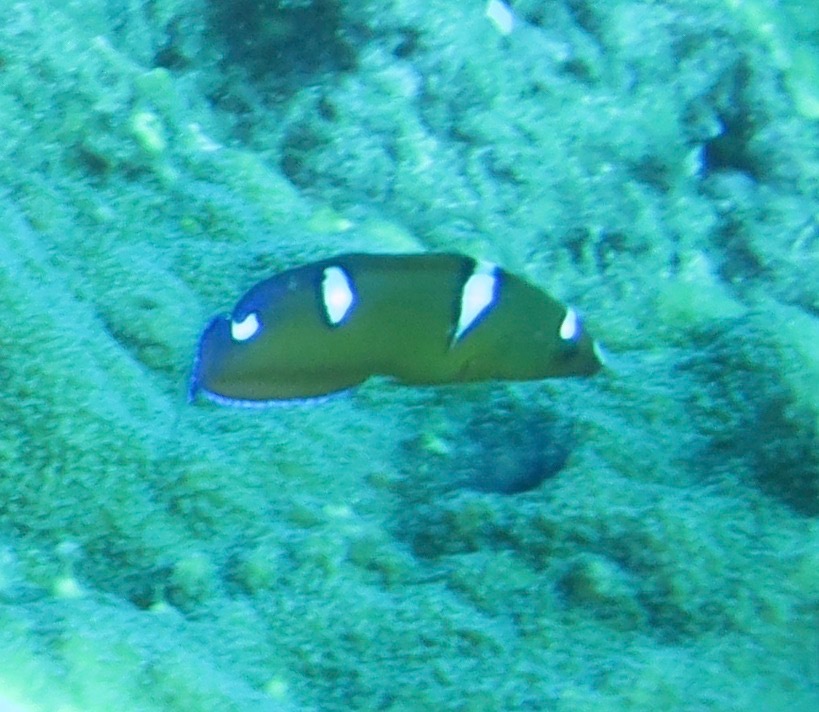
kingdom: Animalia
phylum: Chordata
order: Perciformes
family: Labridae
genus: Coris
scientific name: Coris cuvieri
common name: African coris
